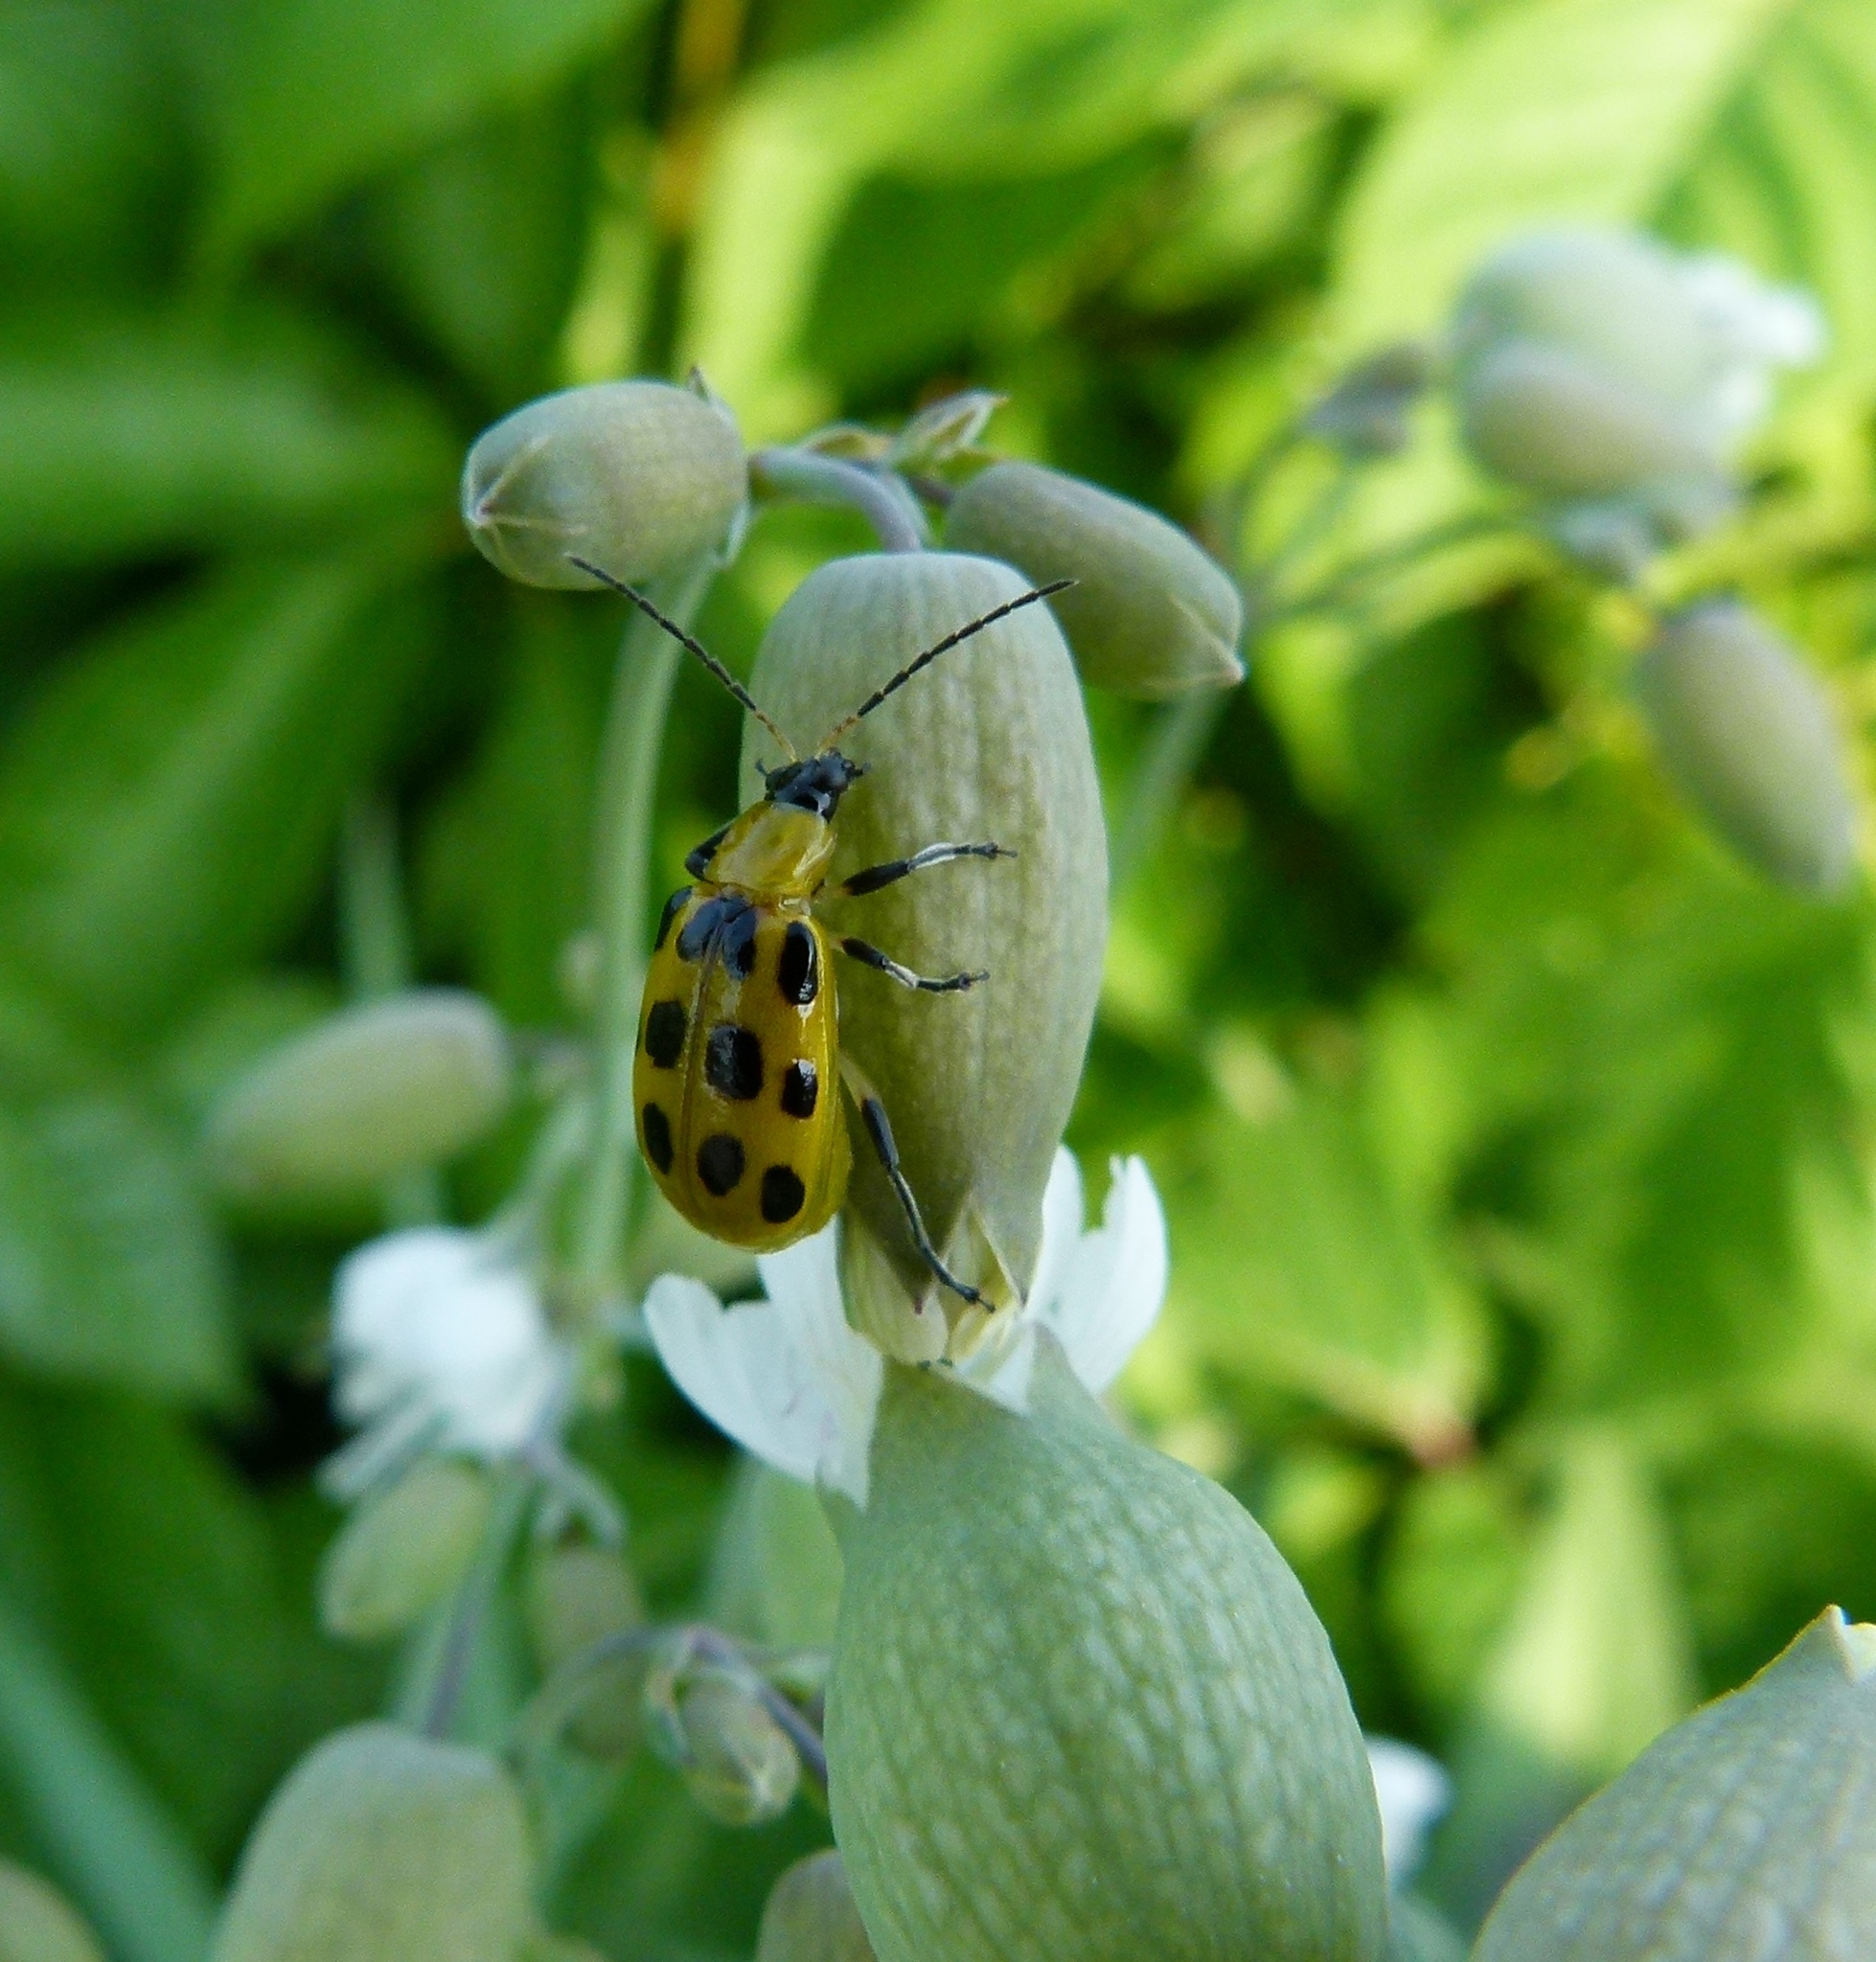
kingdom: Animalia
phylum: Arthropoda
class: Insecta
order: Coleoptera
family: Chrysomelidae
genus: Diabrotica
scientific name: Diabrotica undecimpunctata
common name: Spotted cucumber beetle
